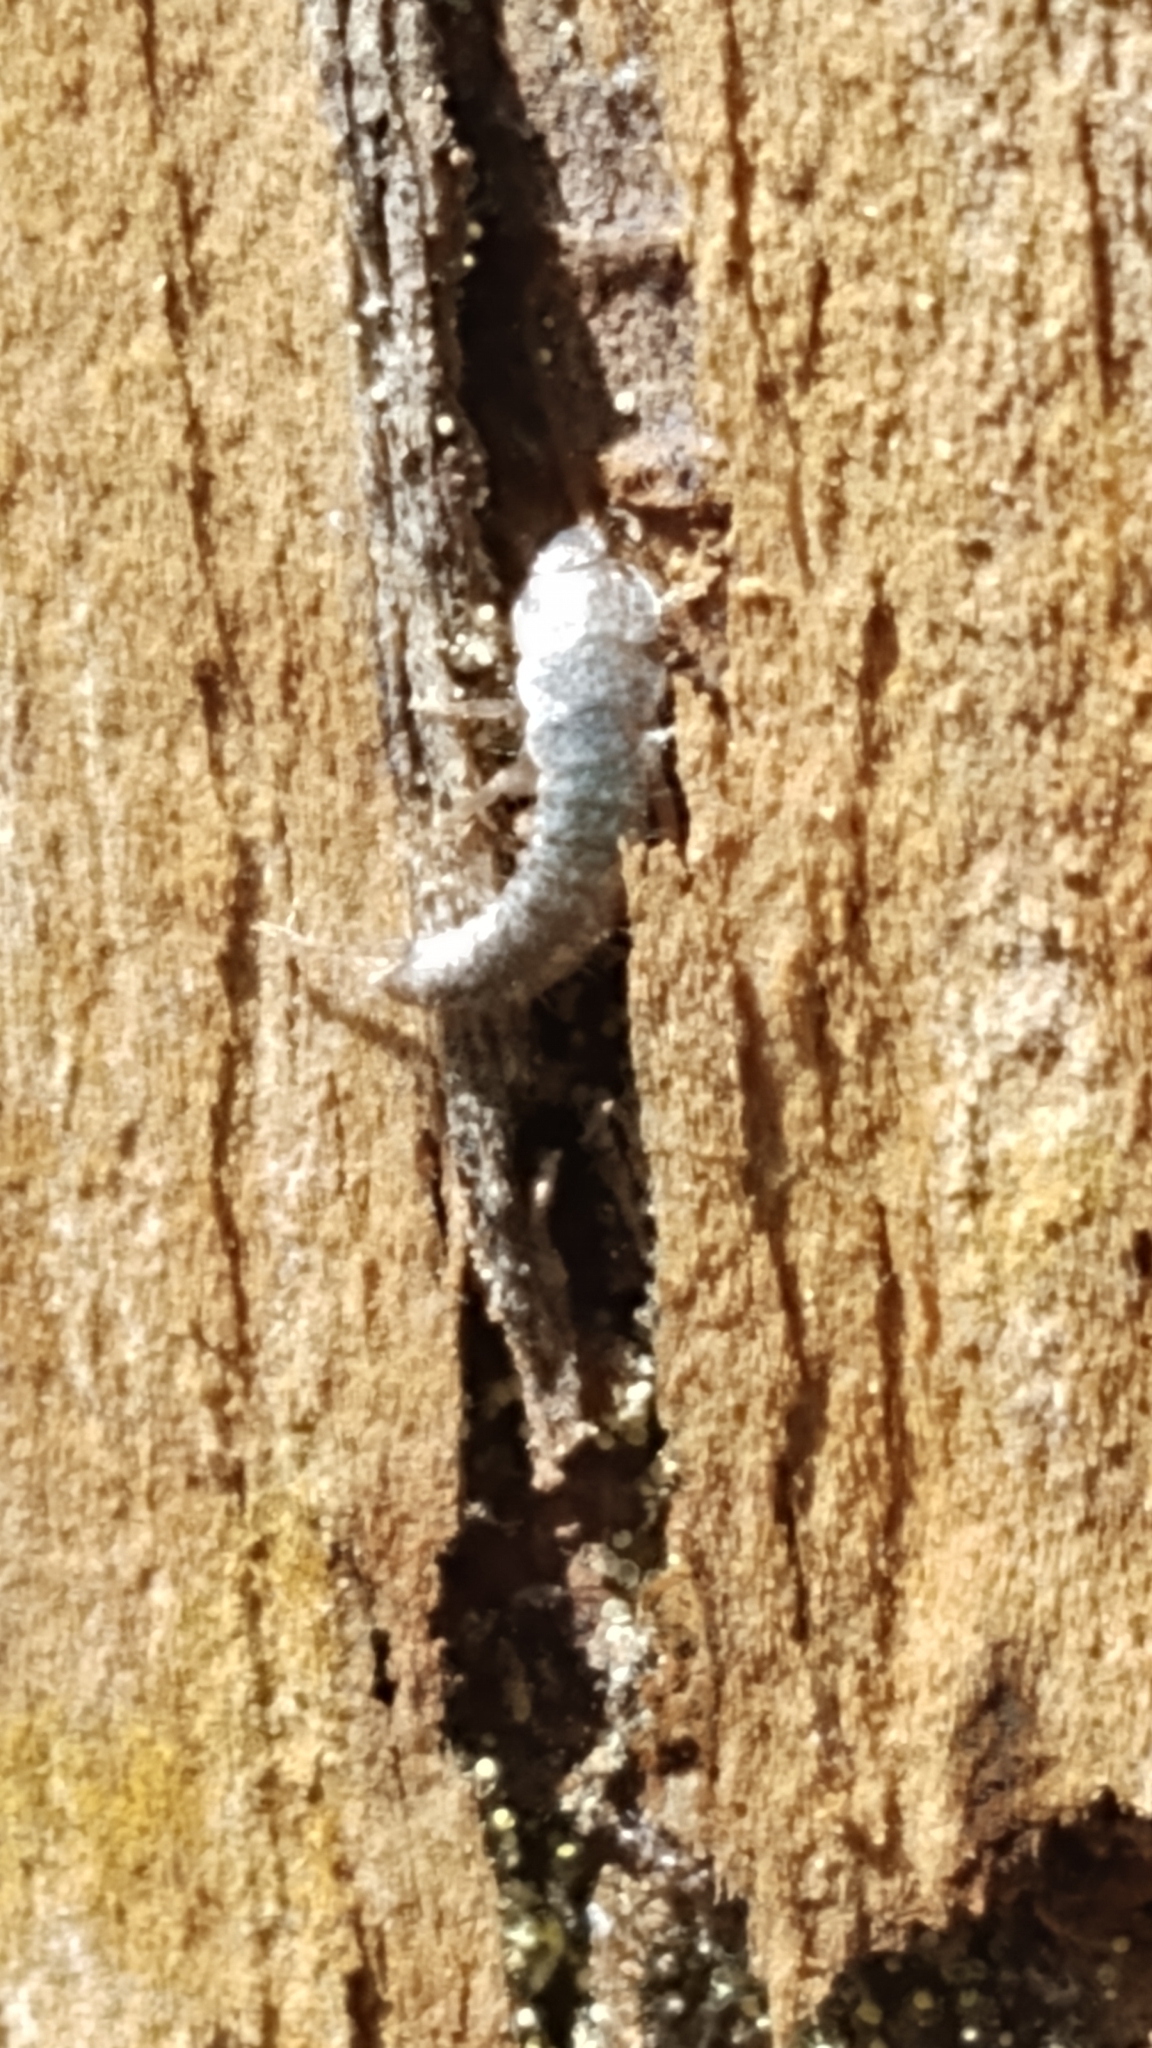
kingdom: Animalia
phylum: Arthropoda
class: Insecta
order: Zygentoma
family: Lepismatidae
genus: Lepisma
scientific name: Lepisma saccharinum
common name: Silverfish
